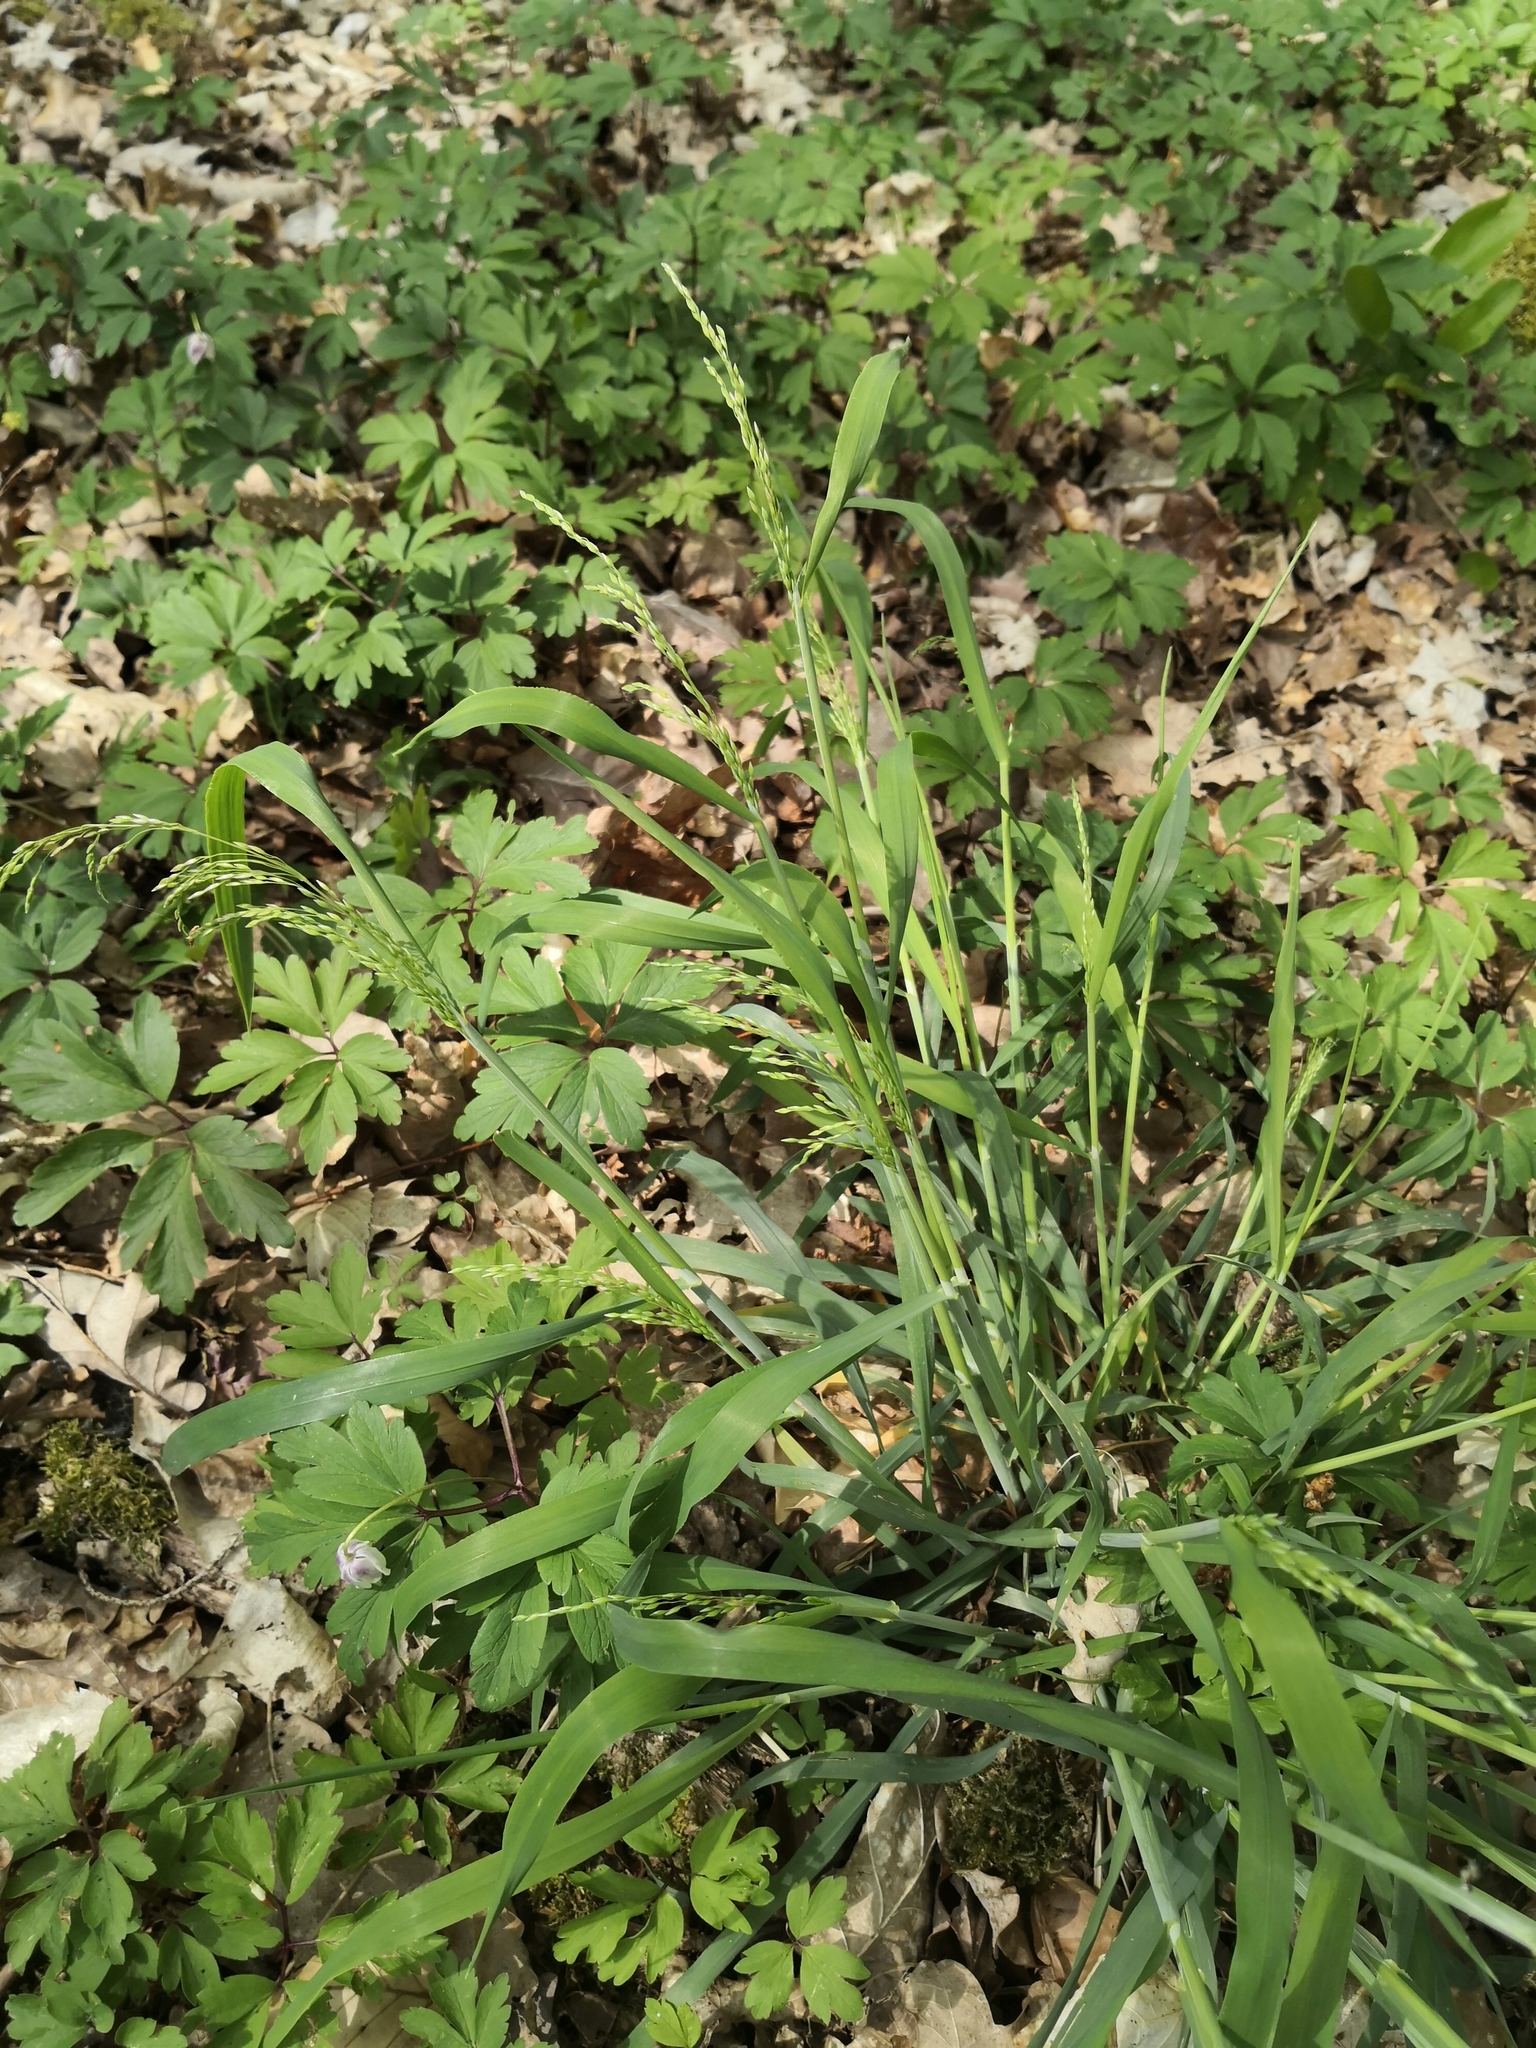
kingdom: Plantae
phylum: Tracheophyta
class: Liliopsida
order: Poales
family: Poaceae
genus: Milium
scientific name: Milium effusum
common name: Wood millet
